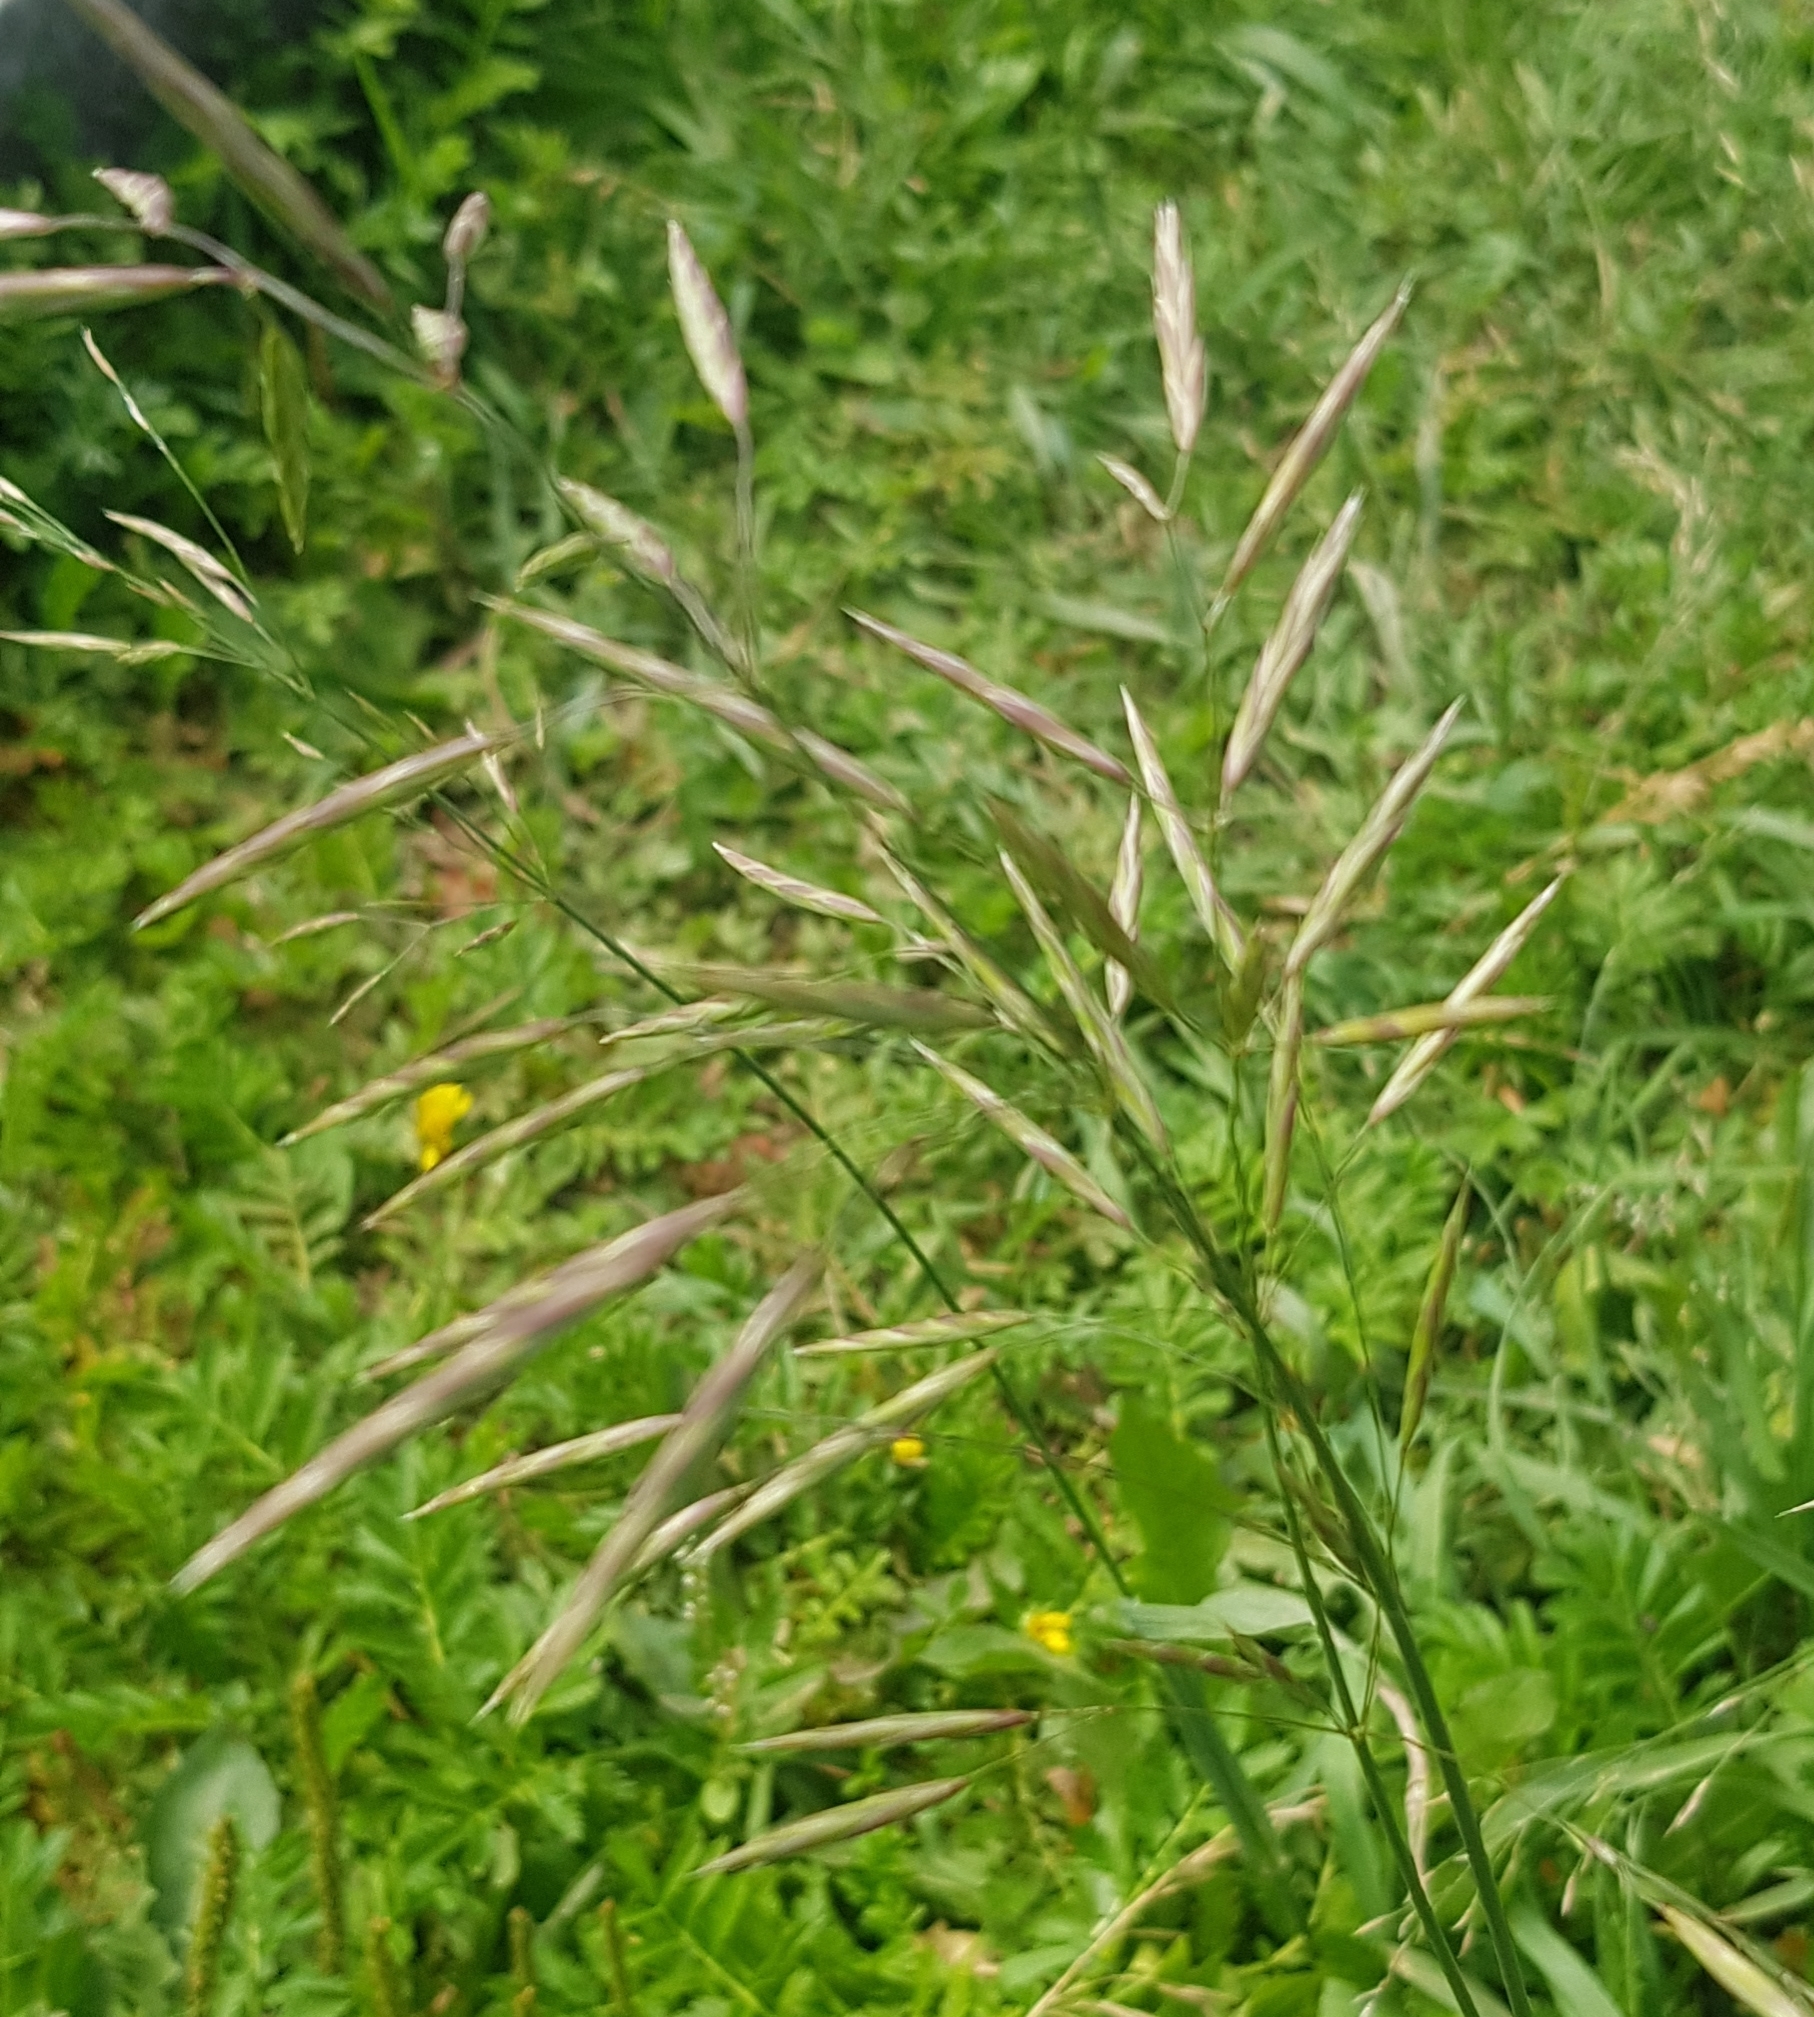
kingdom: Plantae
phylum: Tracheophyta
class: Liliopsida
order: Poales
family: Poaceae
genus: Bromus
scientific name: Bromus inermis
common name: Smooth brome
